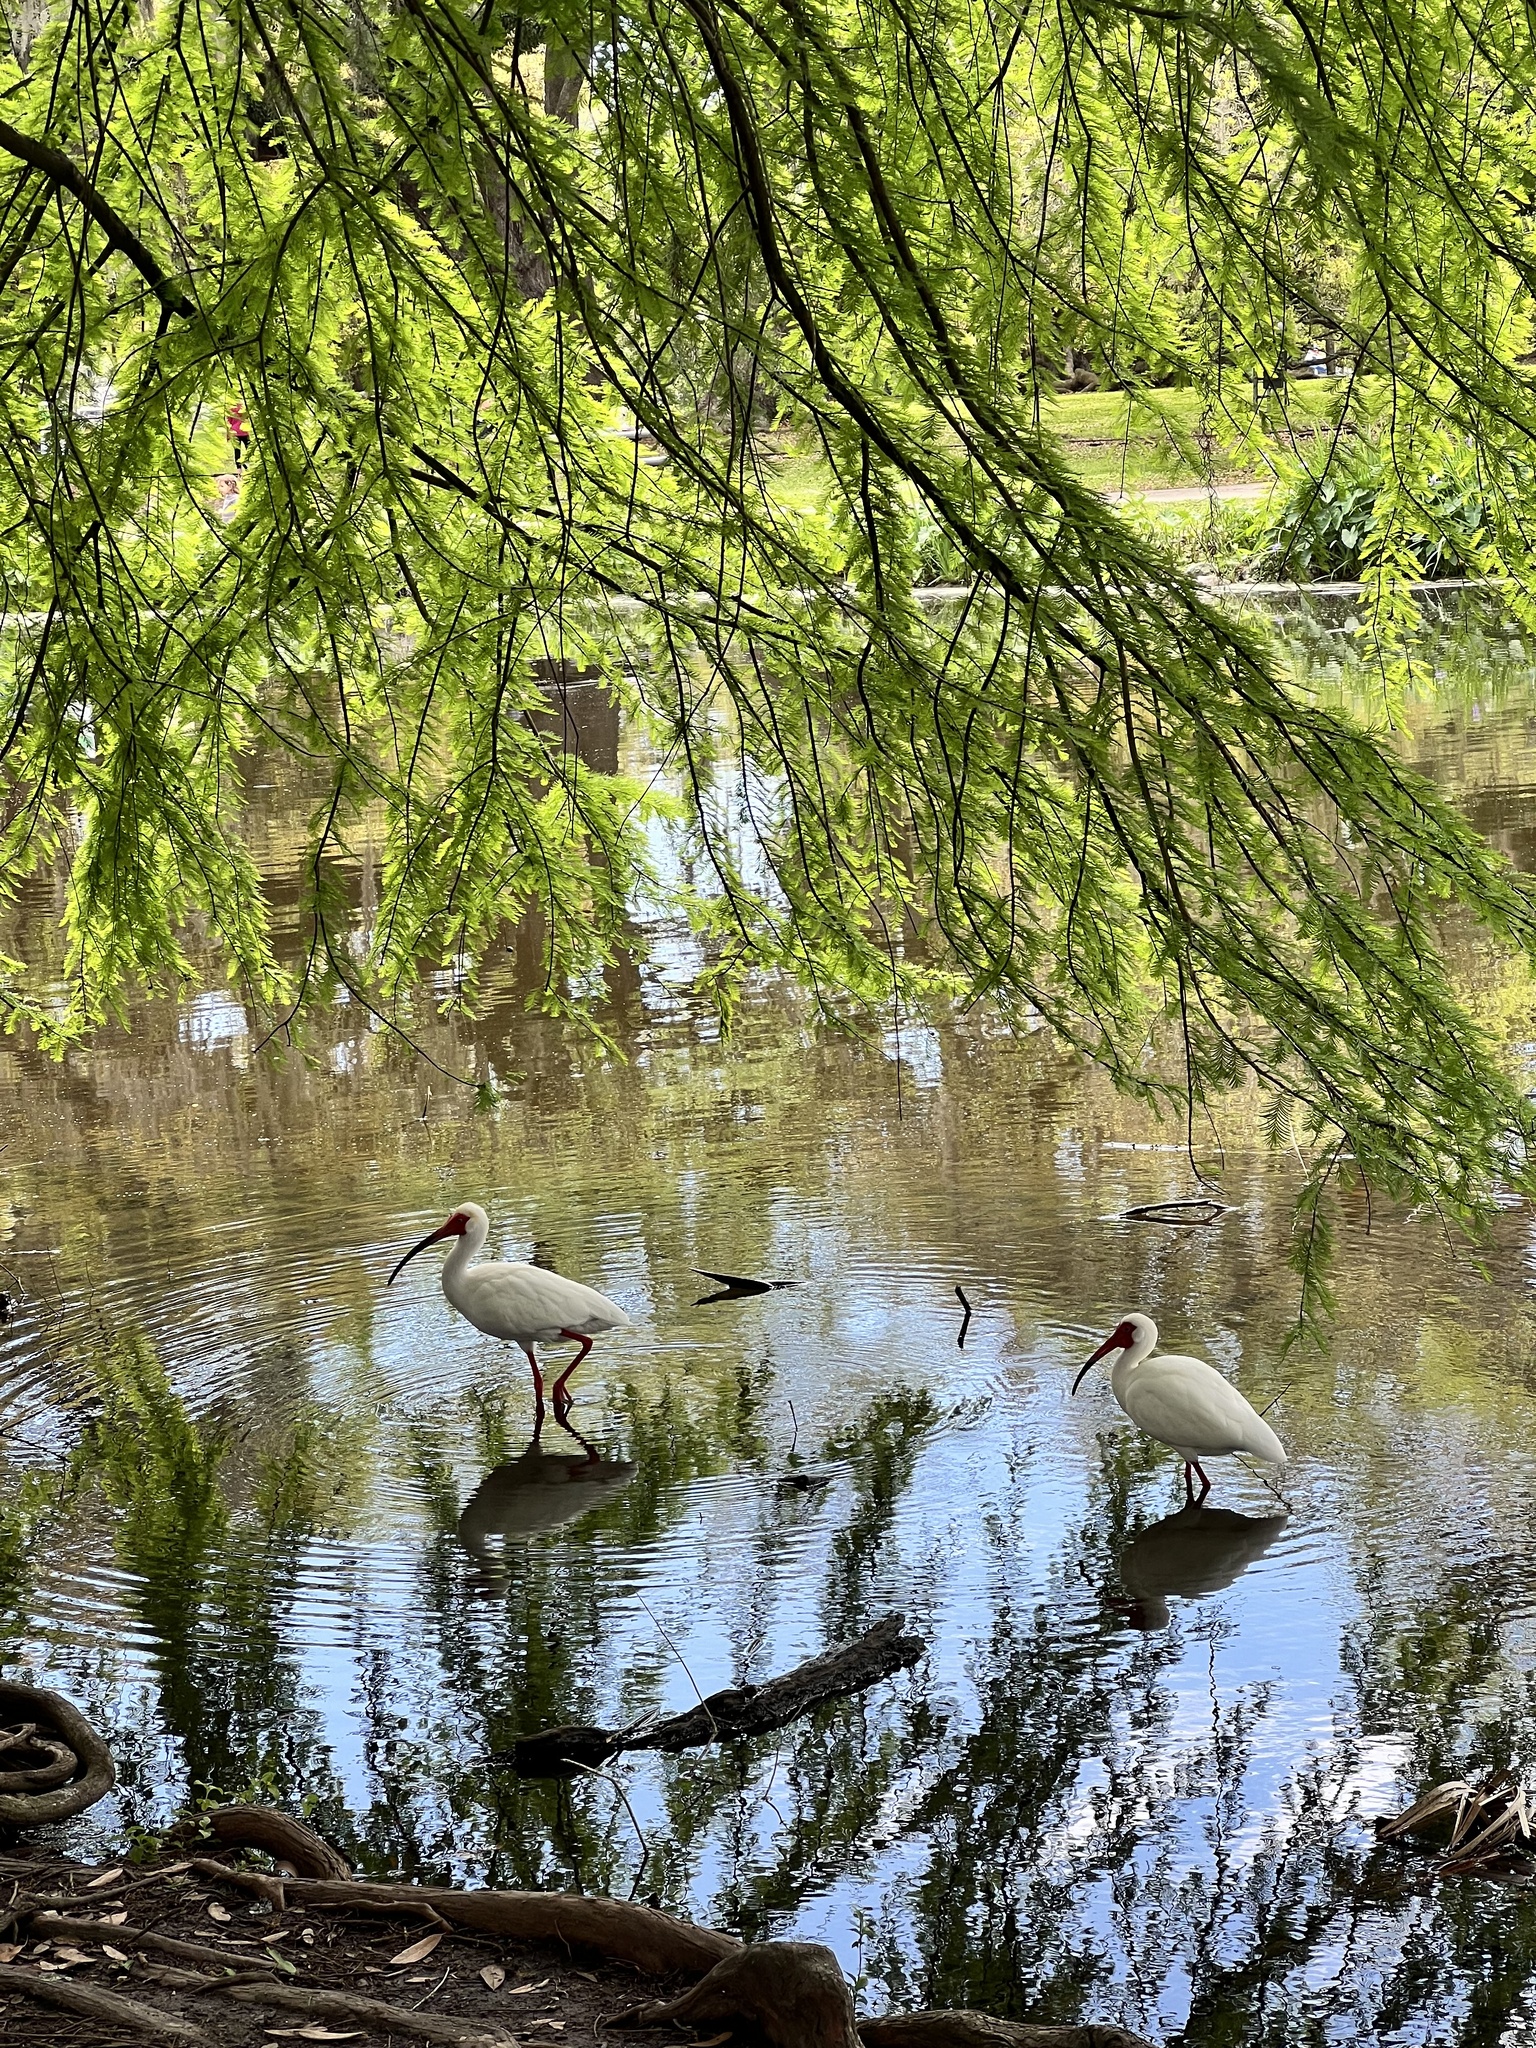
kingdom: Animalia
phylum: Chordata
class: Aves
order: Pelecaniformes
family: Threskiornithidae
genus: Eudocimus
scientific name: Eudocimus albus
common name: White ibis
